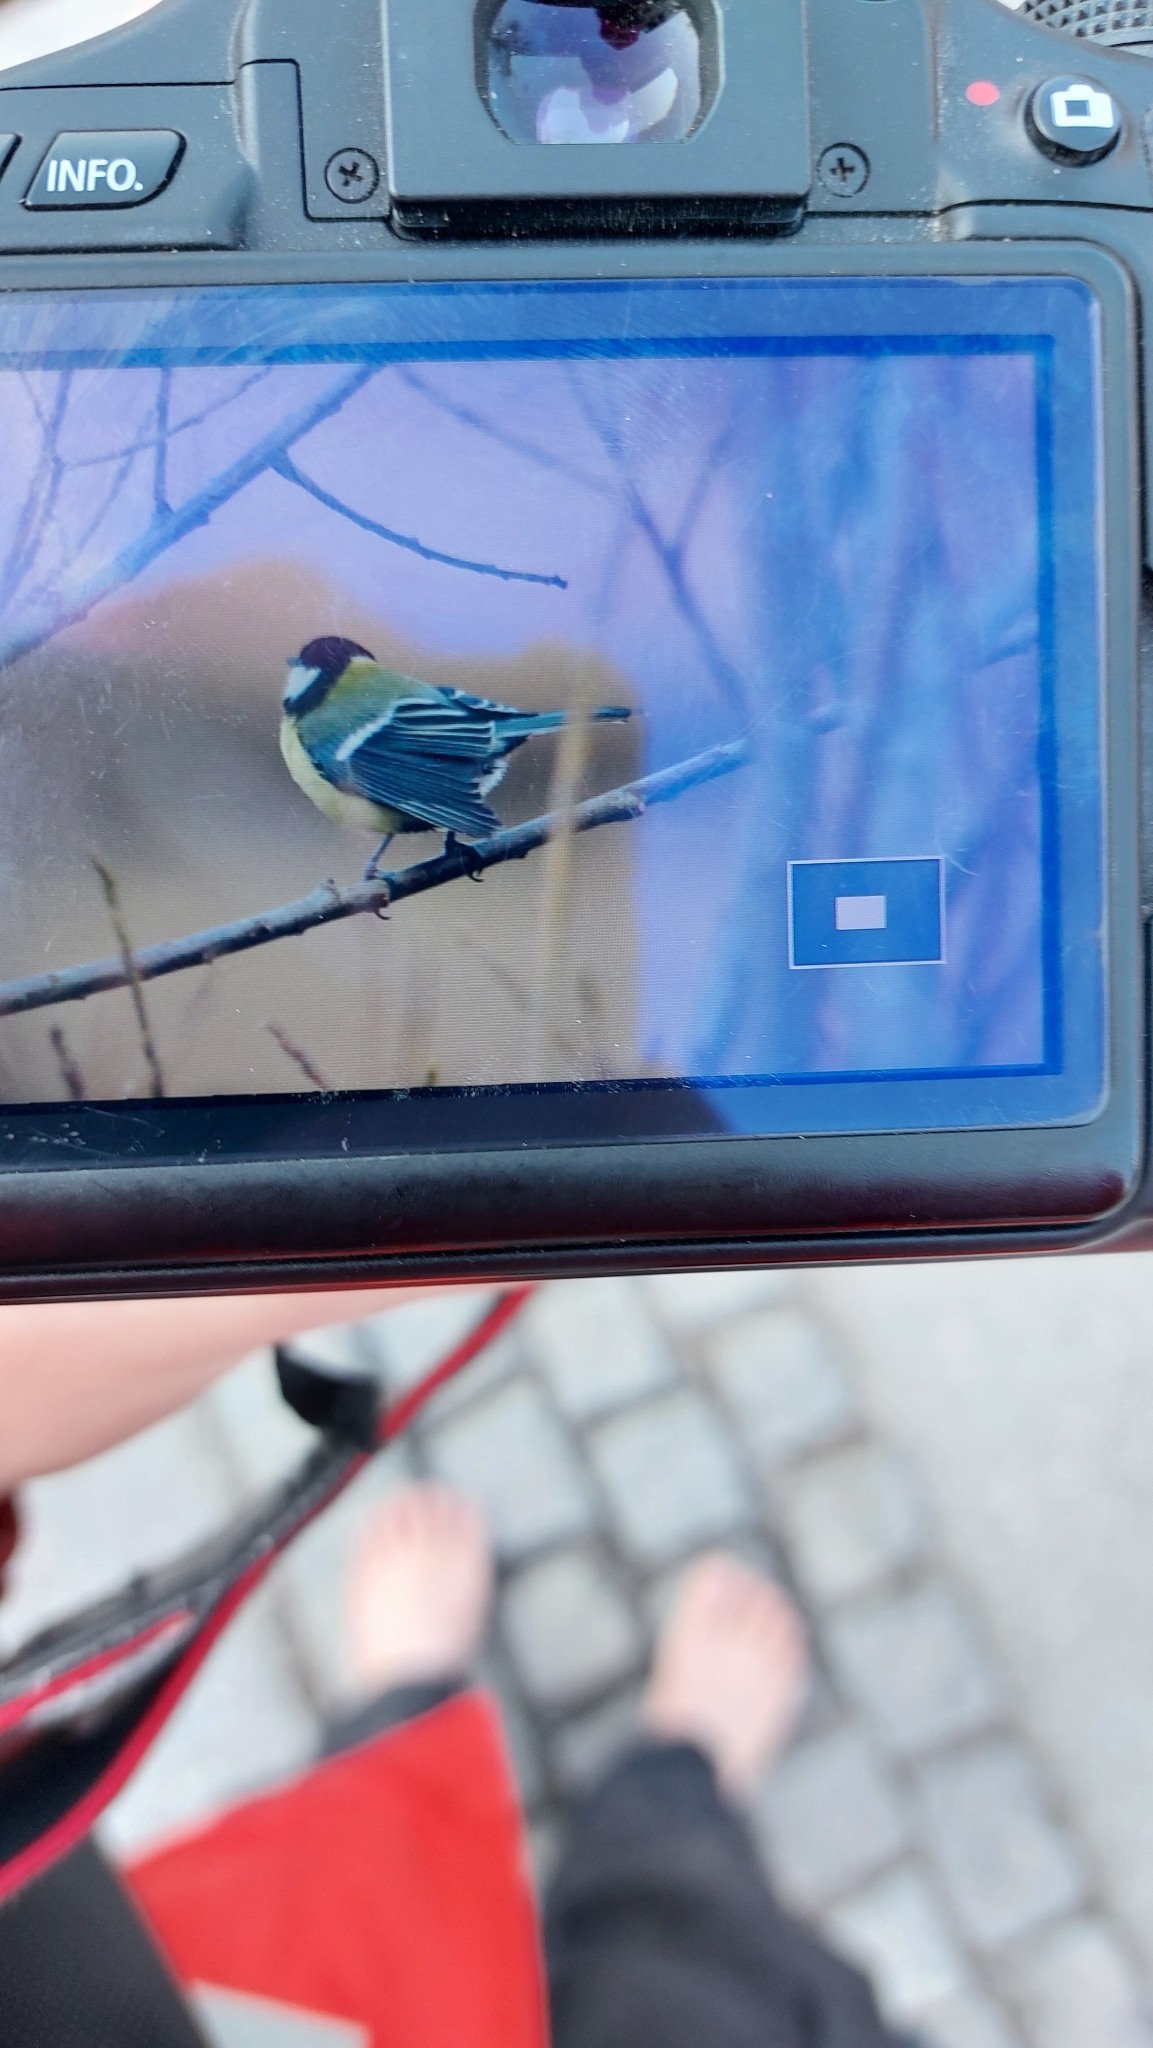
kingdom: Animalia
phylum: Chordata
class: Aves
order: Passeriformes
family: Paridae
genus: Parus
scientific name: Parus major
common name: Great tit
